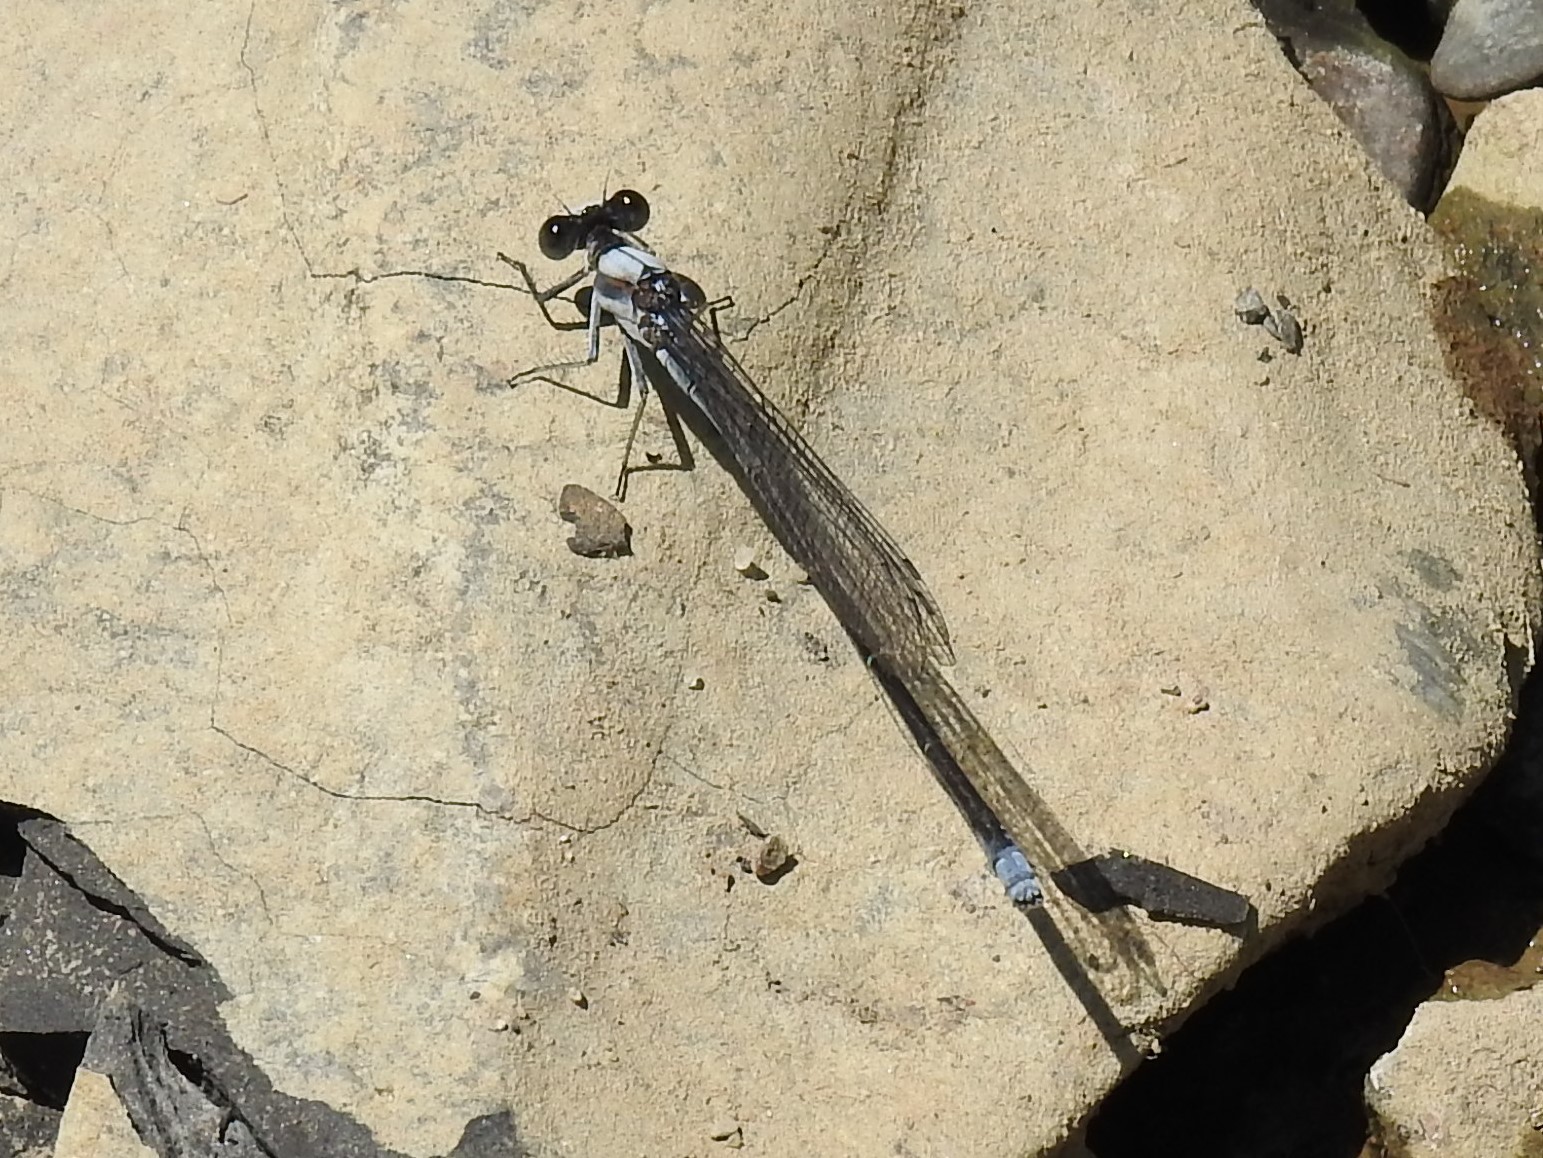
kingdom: Animalia
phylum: Arthropoda
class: Insecta
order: Odonata
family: Coenagrionidae
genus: Argia
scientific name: Argia moesta
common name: Powdered dancer
